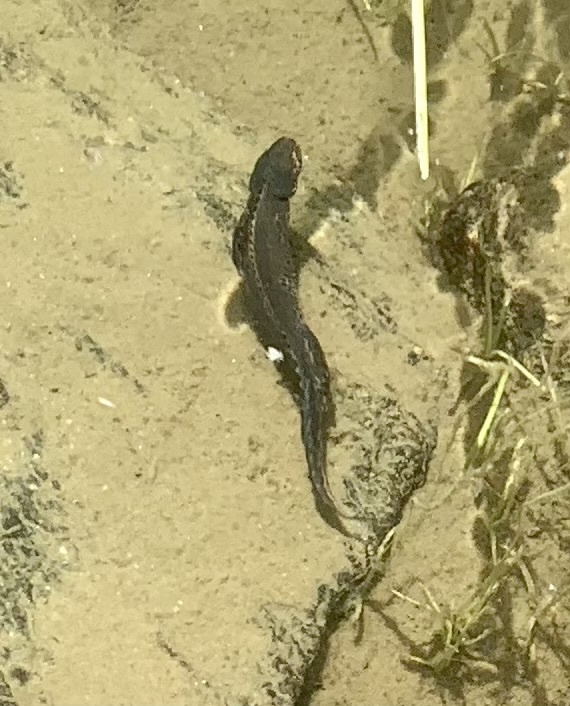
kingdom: Animalia
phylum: Chordata
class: Amphibia
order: Caudata
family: Salamandridae
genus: Ichthyosaura
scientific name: Ichthyosaura alpestris
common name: Alpine newt
